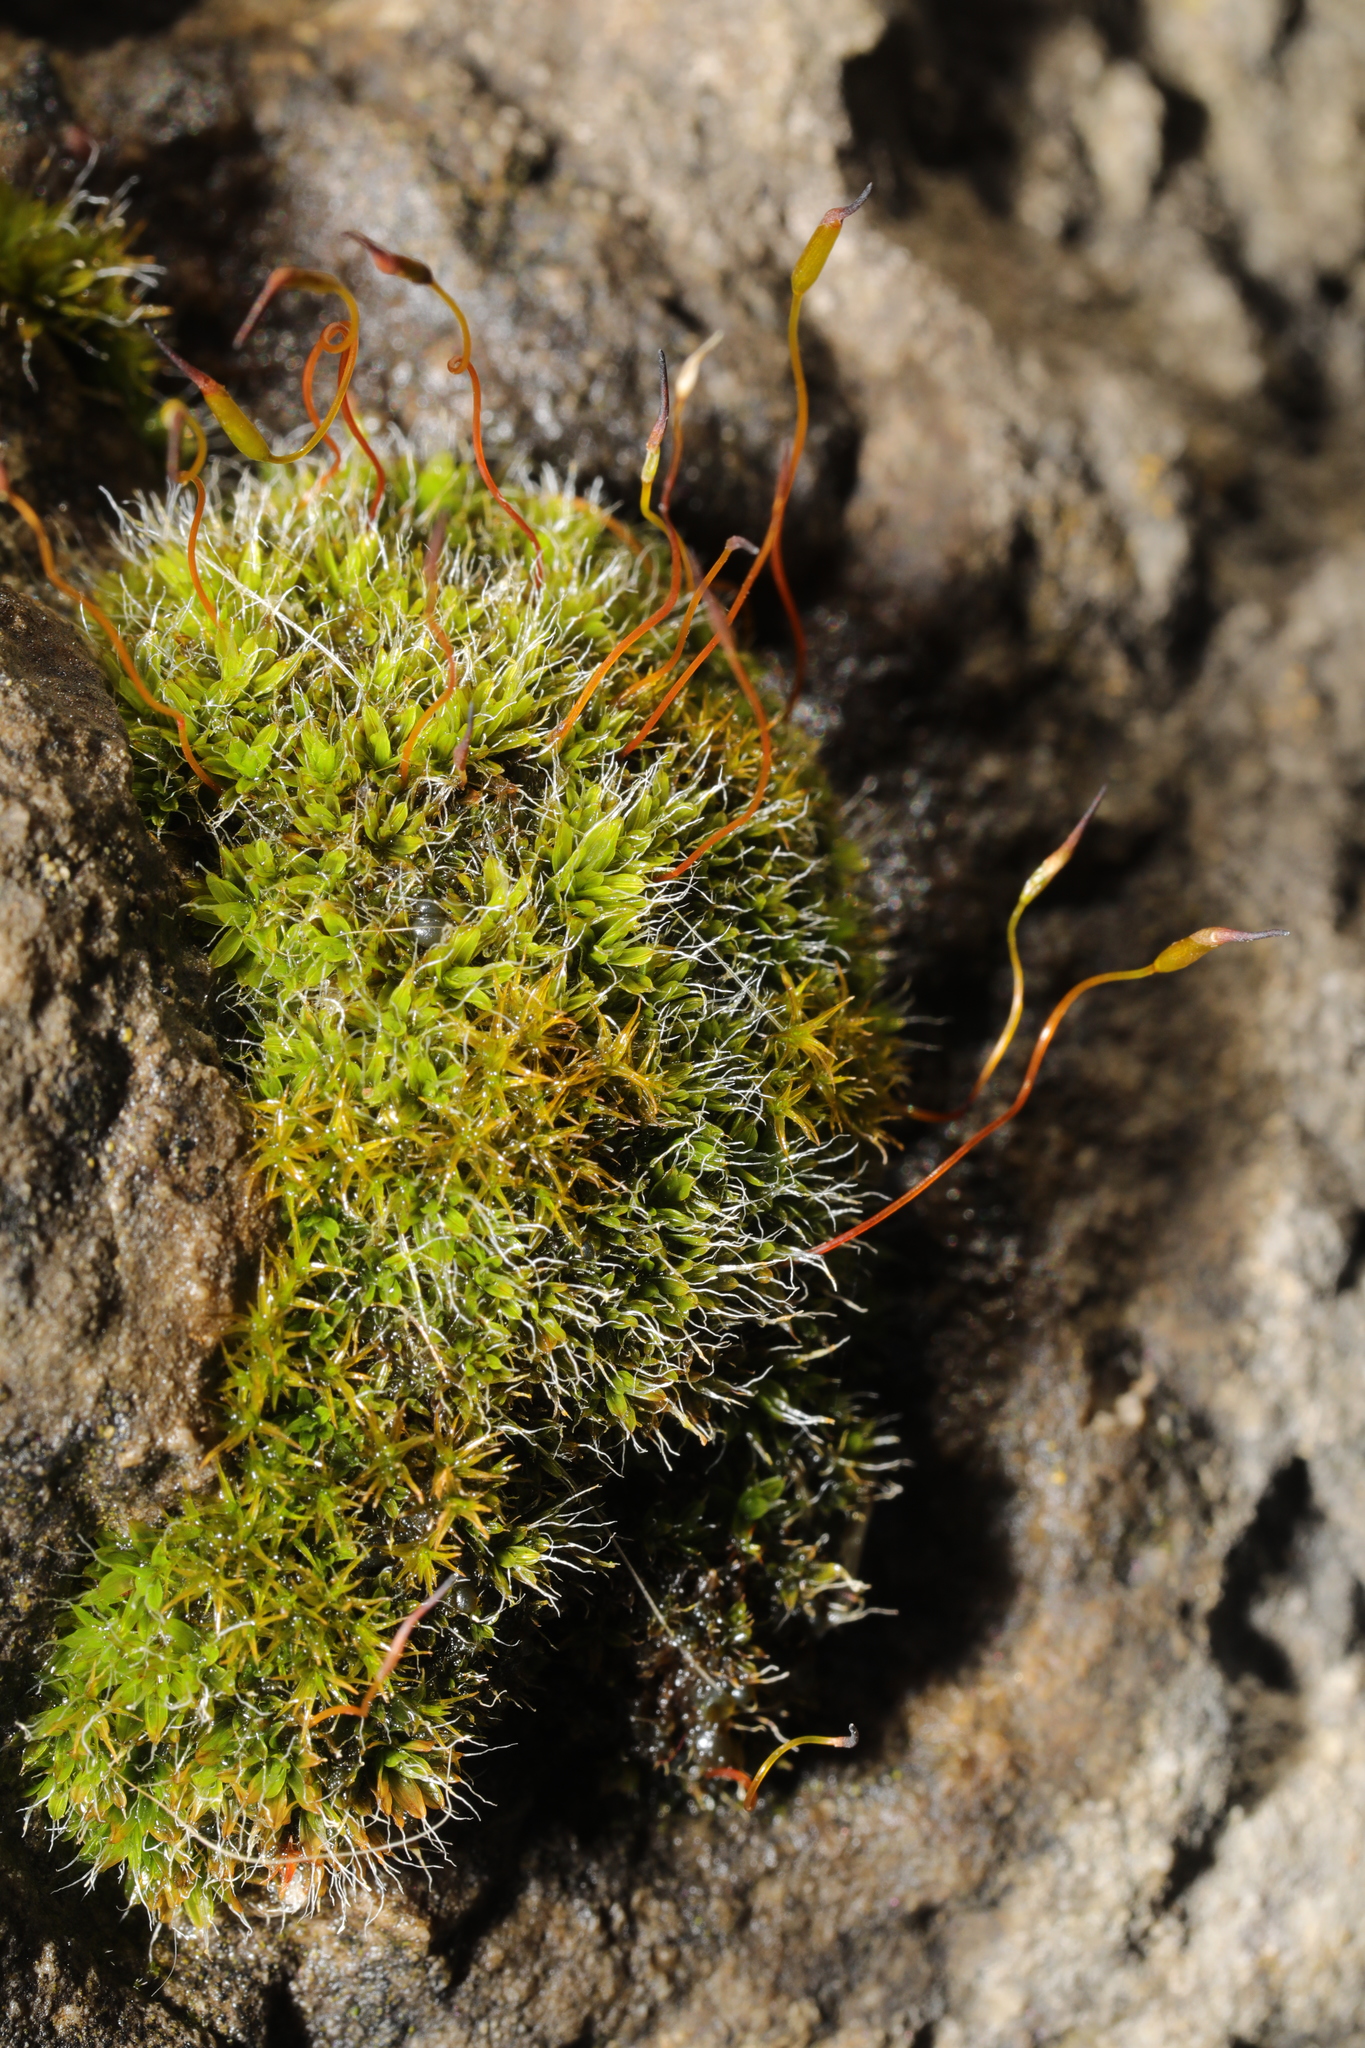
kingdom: Plantae
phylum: Bryophyta
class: Bryopsida
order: Pottiales
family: Pottiaceae
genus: Tortula
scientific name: Tortula muralis
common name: Wall screw-moss
